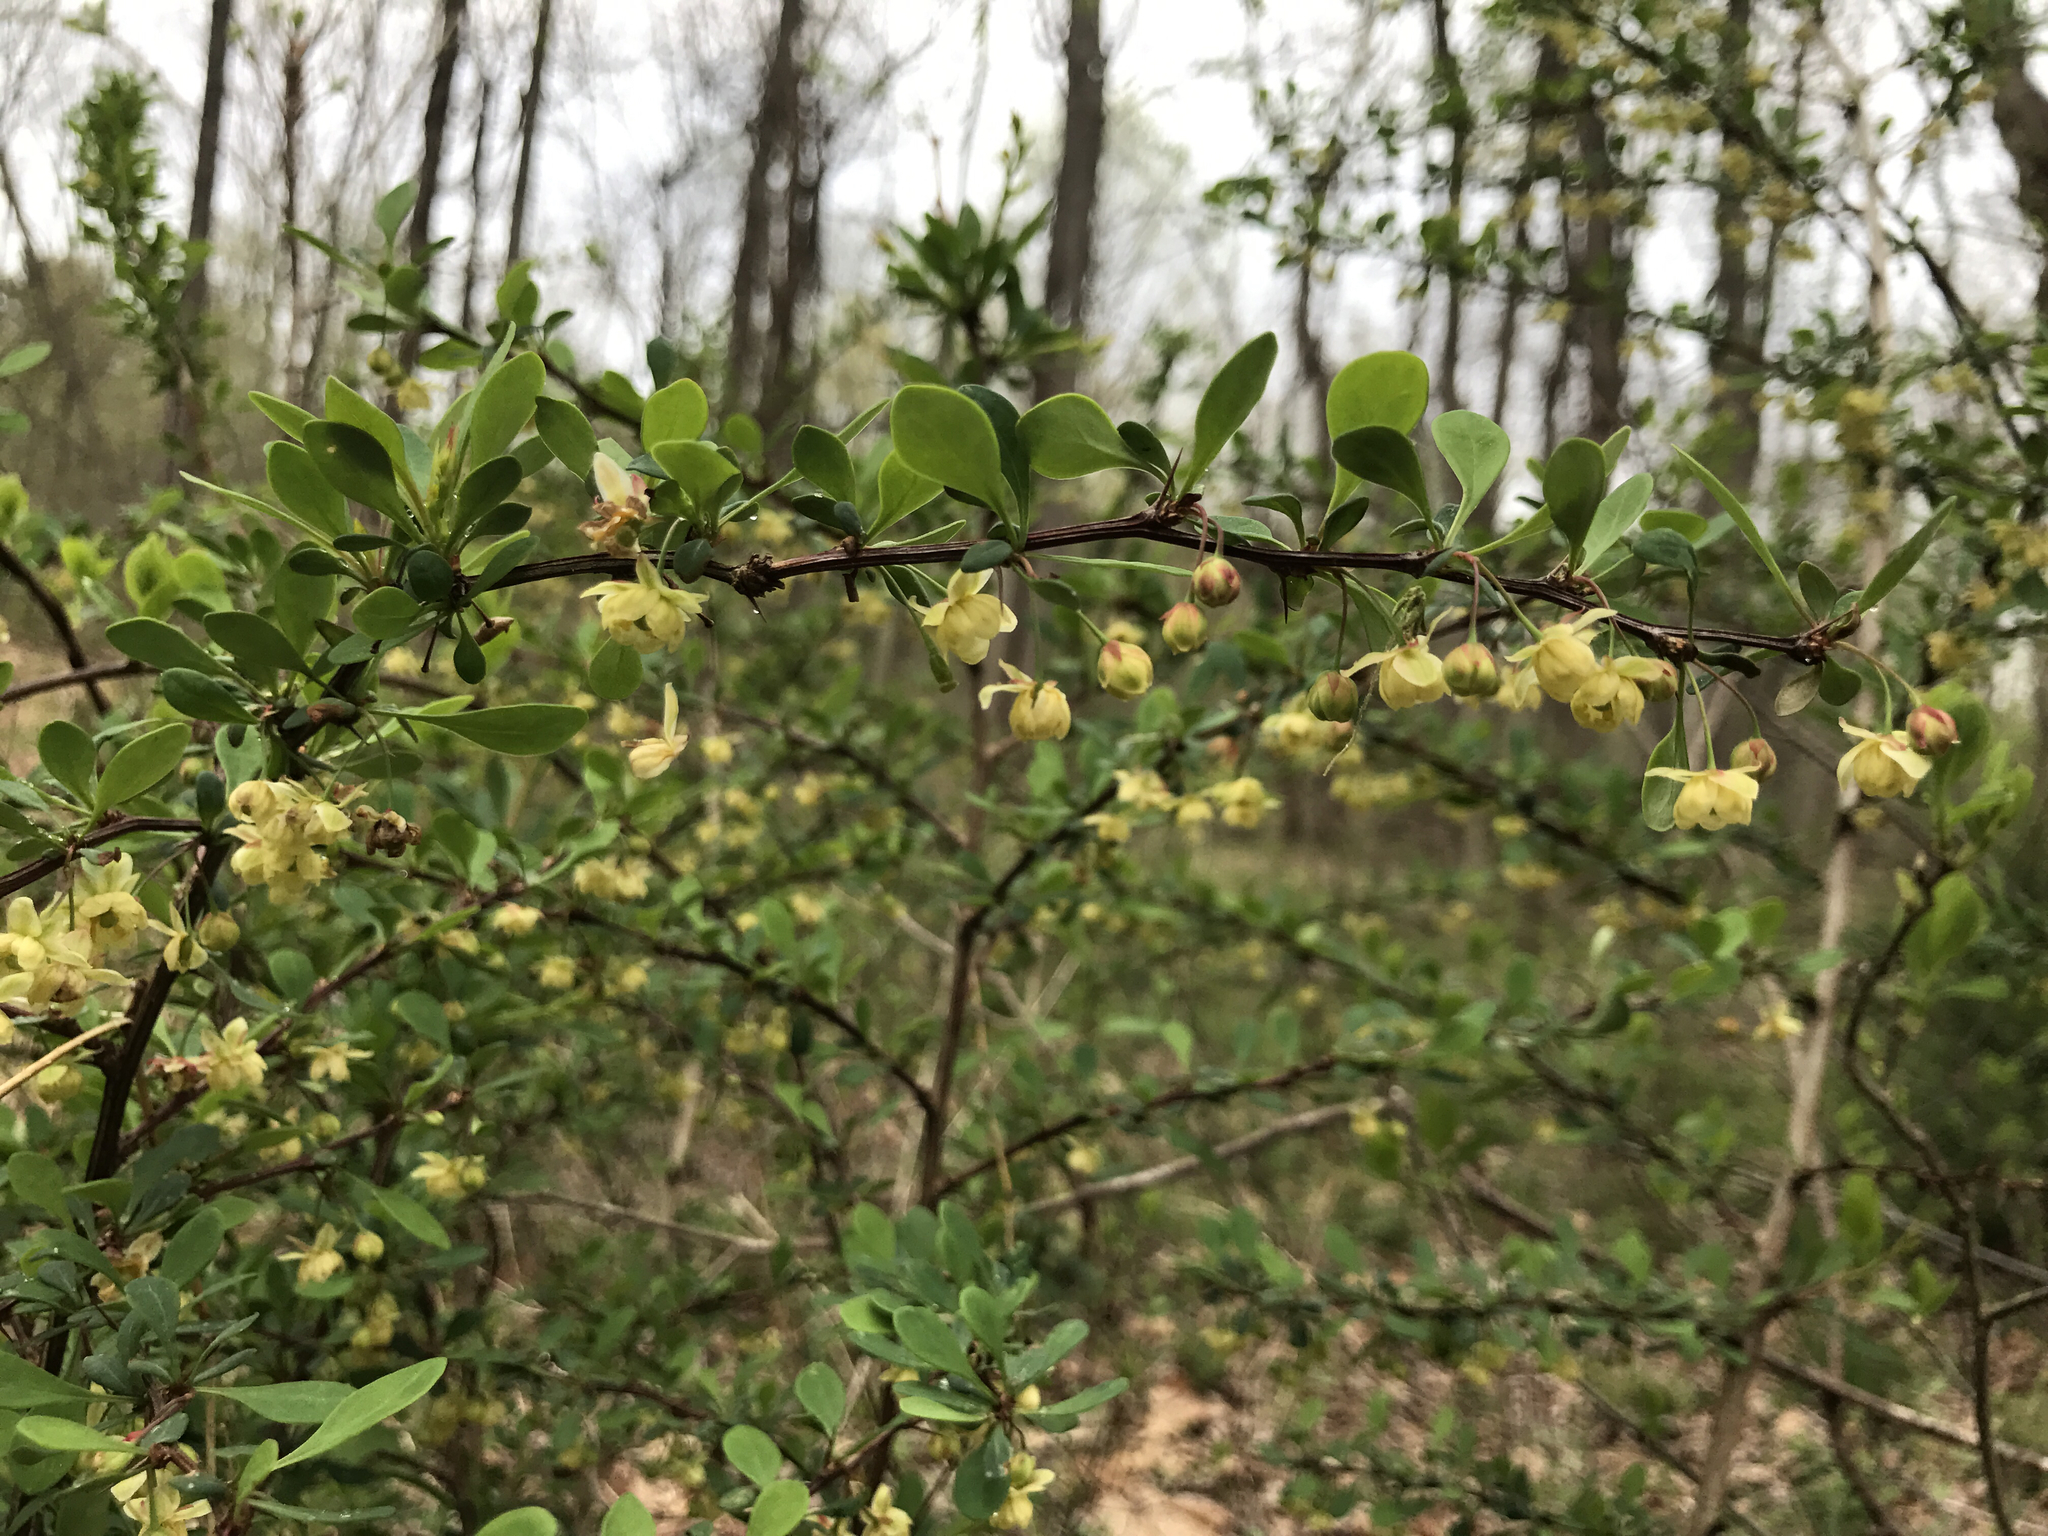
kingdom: Plantae
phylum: Tracheophyta
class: Magnoliopsida
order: Ranunculales
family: Berberidaceae
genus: Berberis
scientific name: Berberis thunbergii
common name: Japanese barberry
